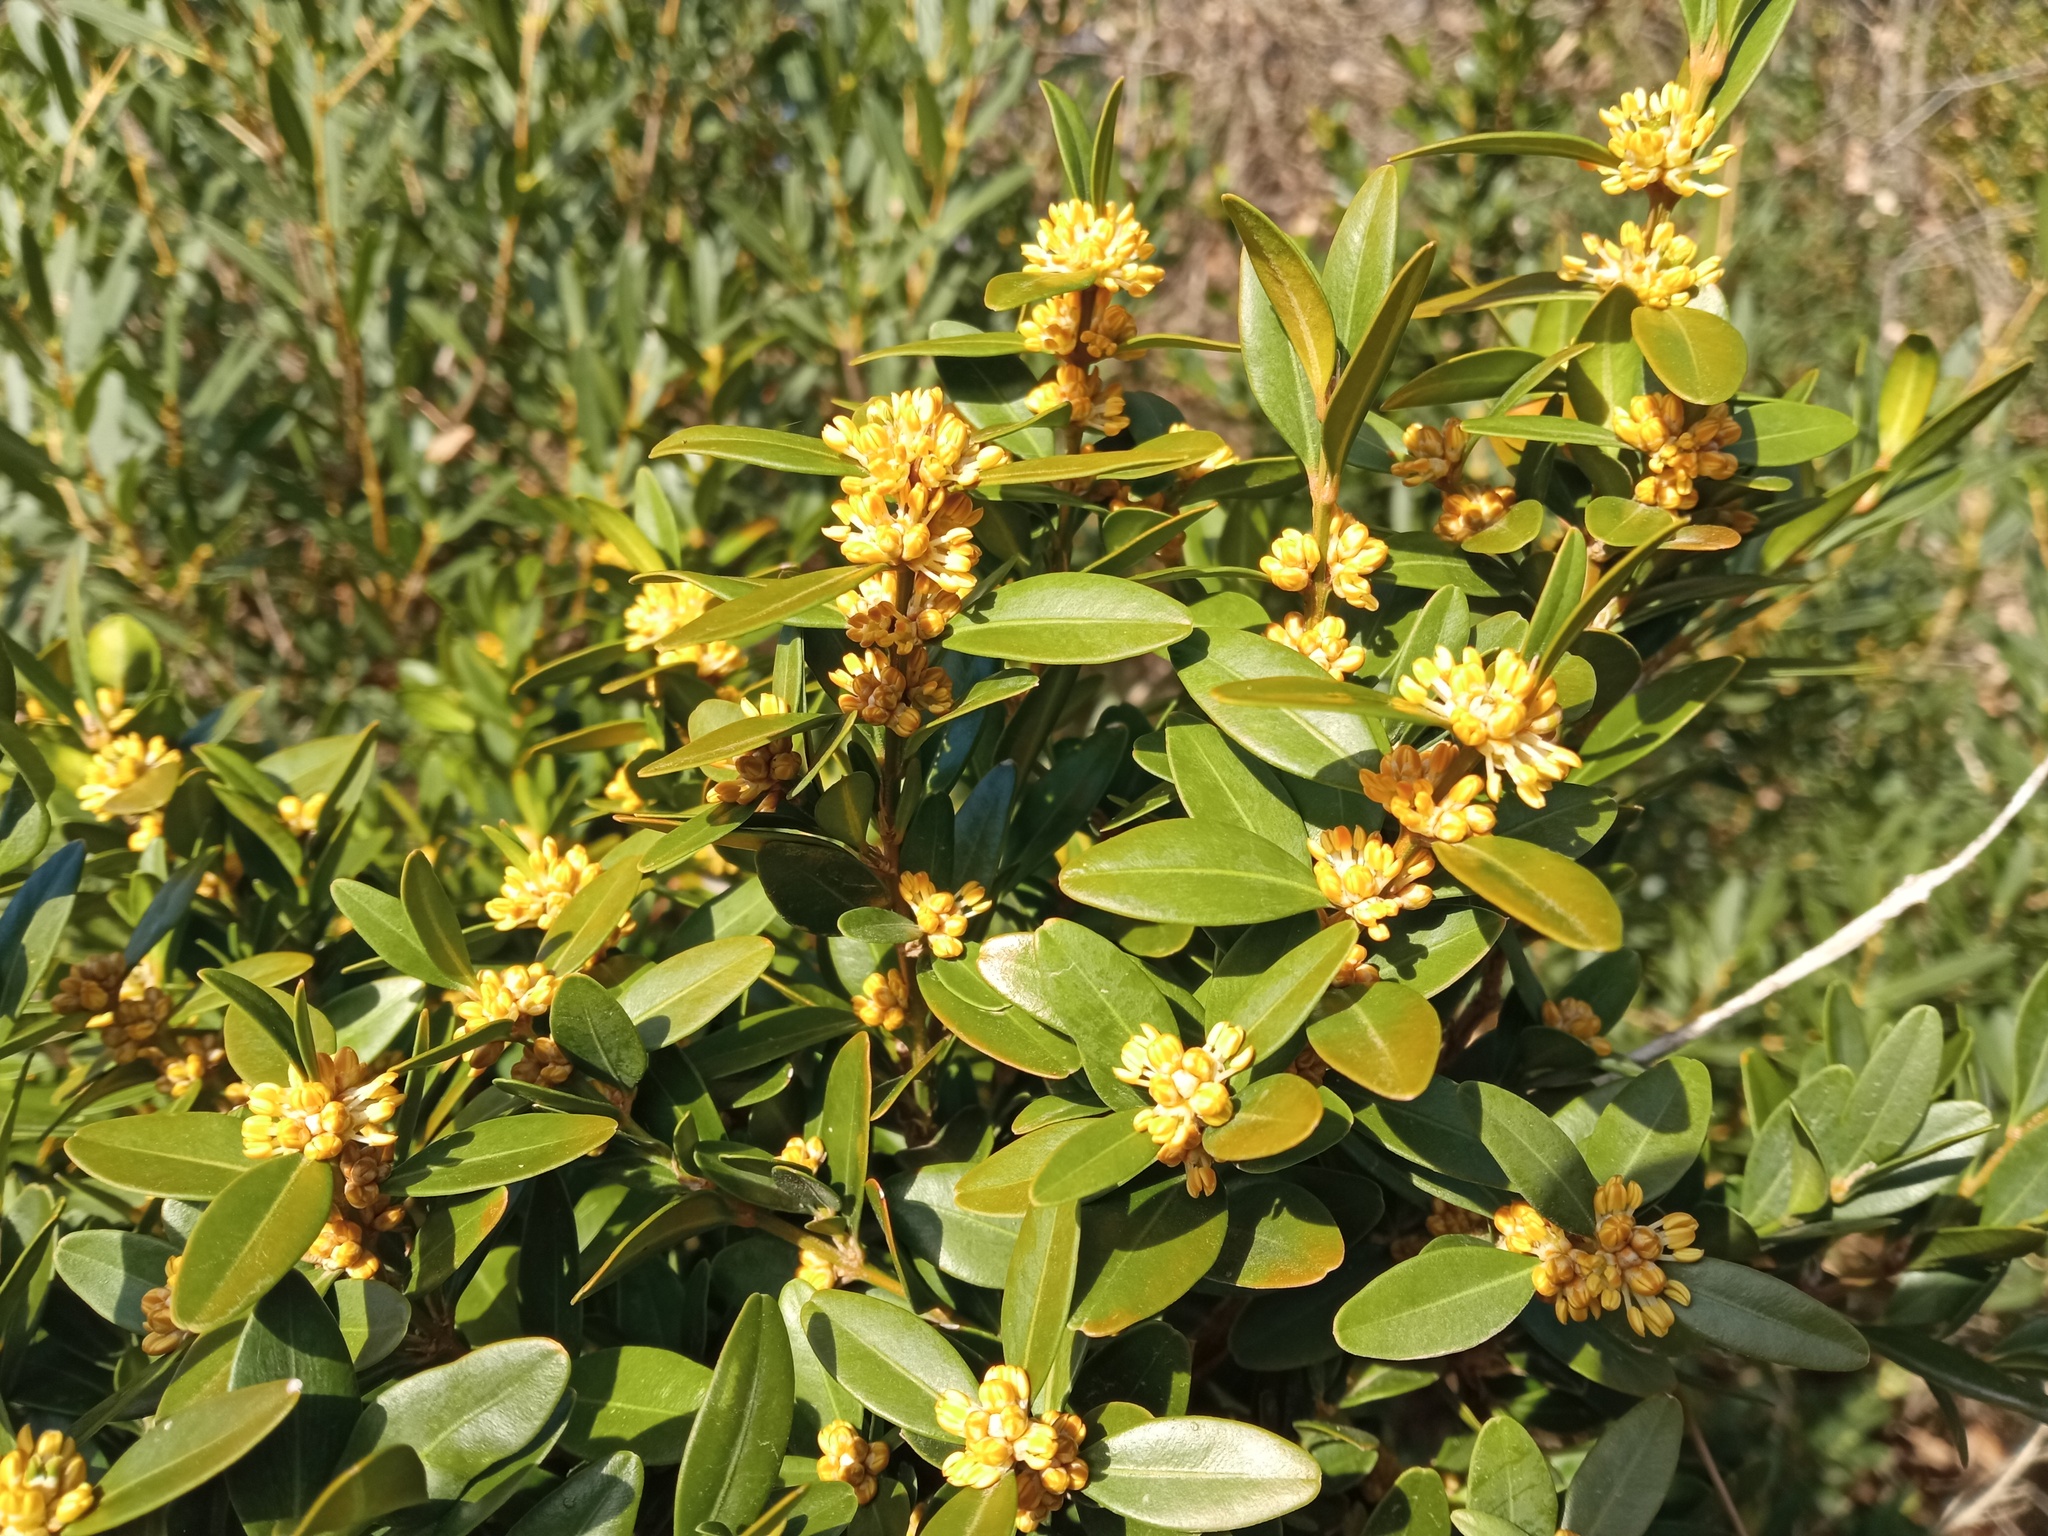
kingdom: Plantae
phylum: Tracheophyta
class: Magnoliopsida
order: Buxales
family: Buxaceae
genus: Buxus
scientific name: Buxus sempervirens
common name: Box
